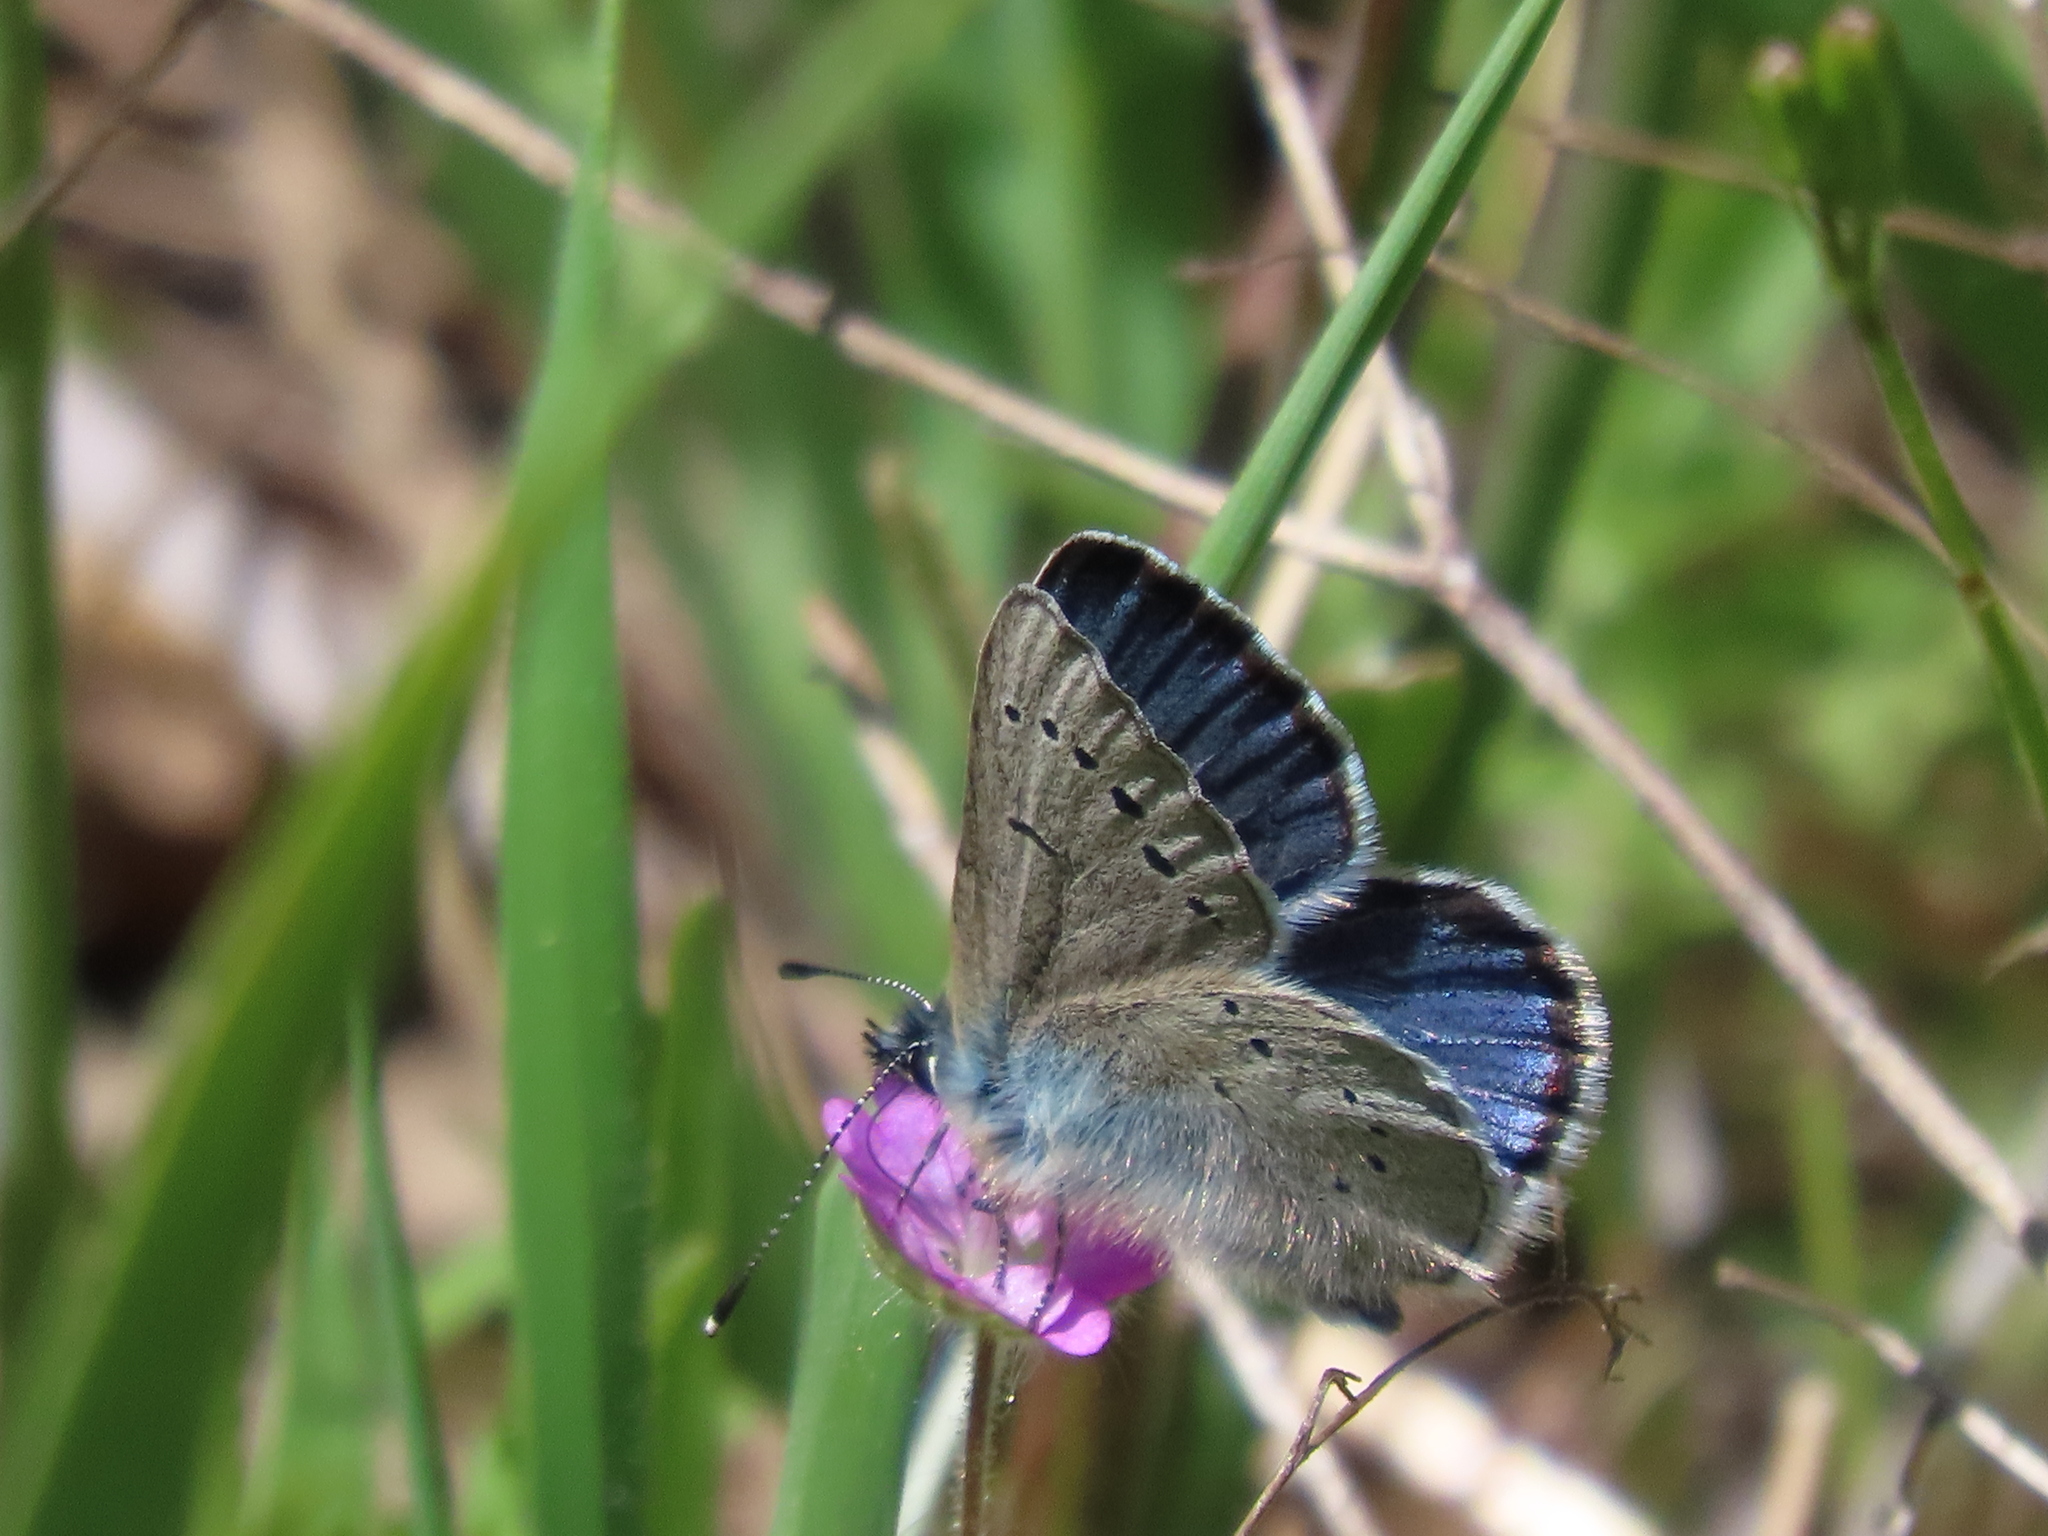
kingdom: Animalia
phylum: Arthropoda
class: Insecta
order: Lepidoptera
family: Lycaenidae
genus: Glaucopsyche
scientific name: Glaucopsyche lygdamus
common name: Silvery blue
